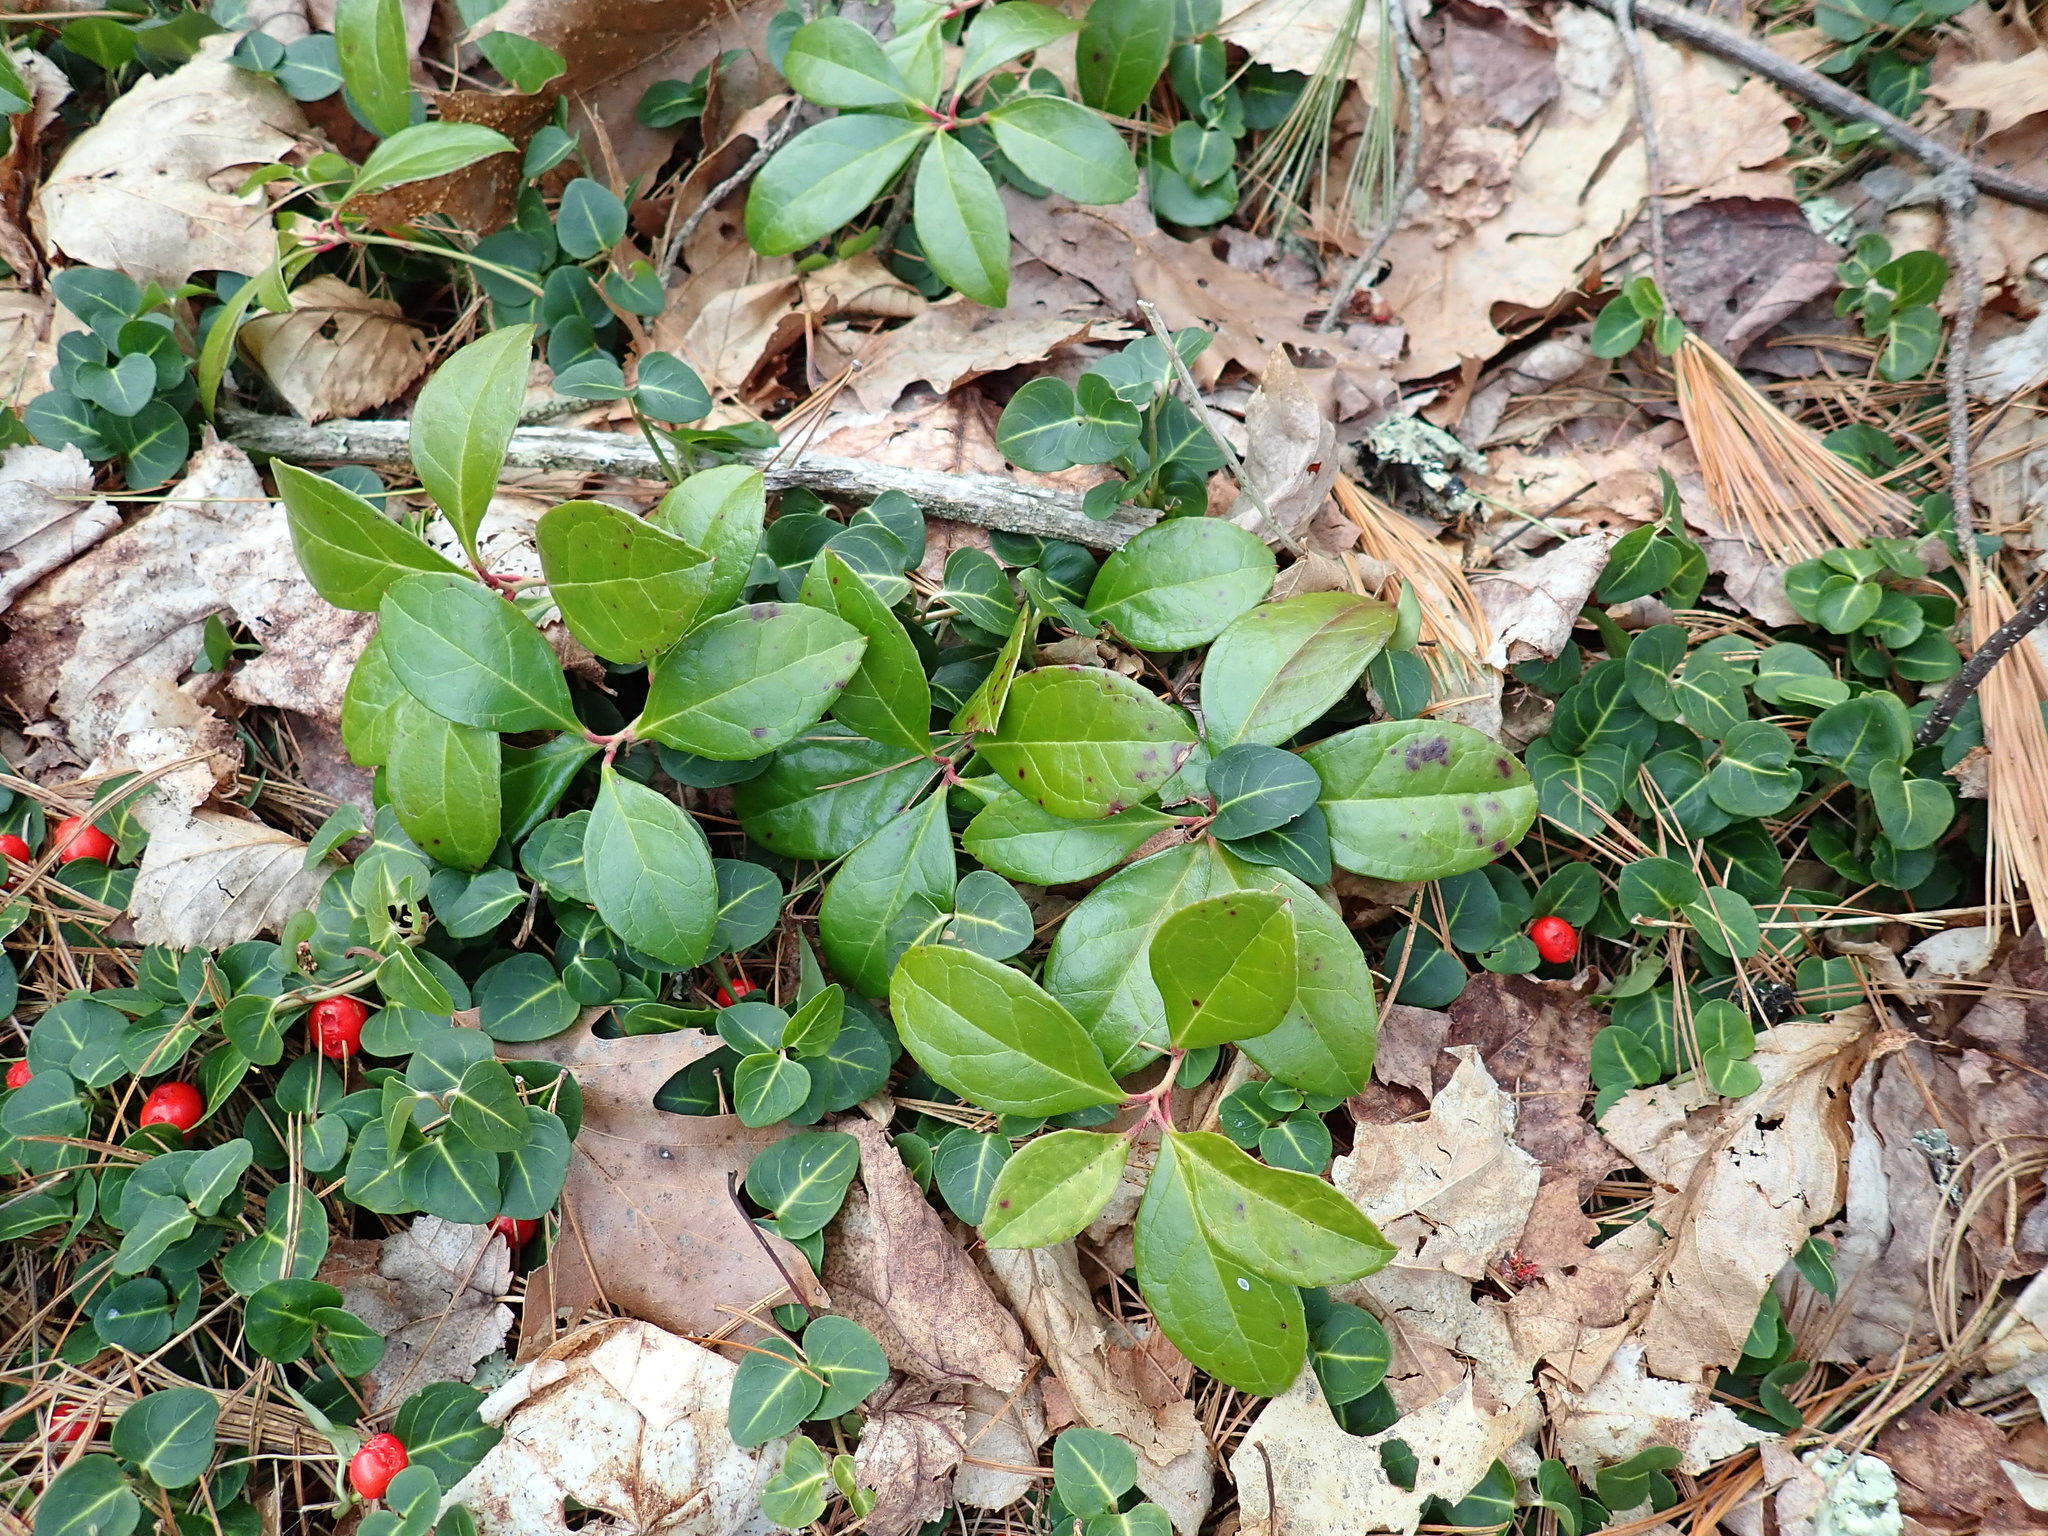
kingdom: Plantae
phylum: Tracheophyta
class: Magnoliopsida
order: Ericales
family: Ericaceae
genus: Gaultheria
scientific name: Gaultheria procumbens
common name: Checkerberry
